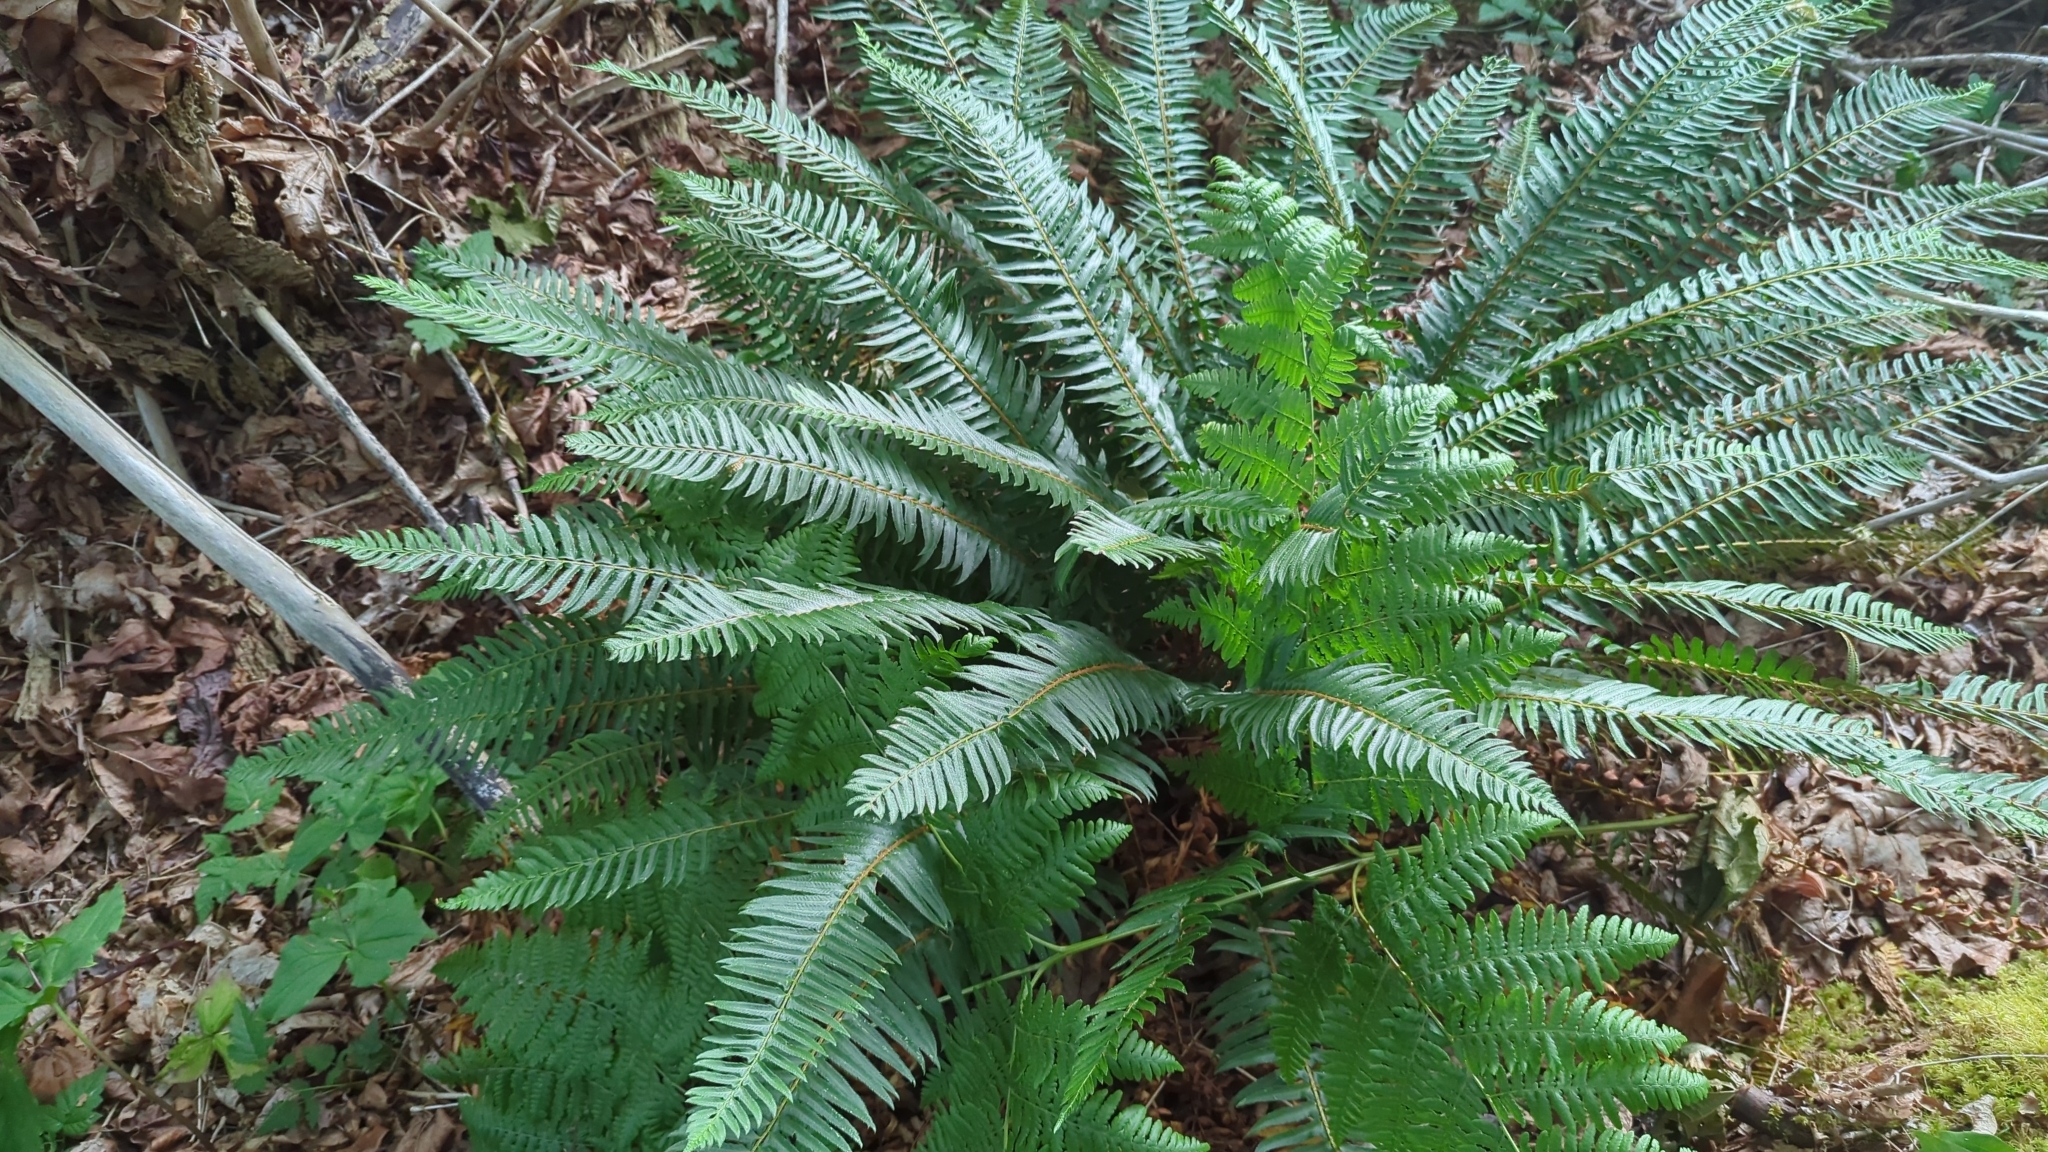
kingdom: Plantae
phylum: Tracheophyta
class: Polypodiopsida
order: Polypodiales
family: Dryopteridaceae
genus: Polystichum
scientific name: Polystichum munitum
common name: Western sword-fern
